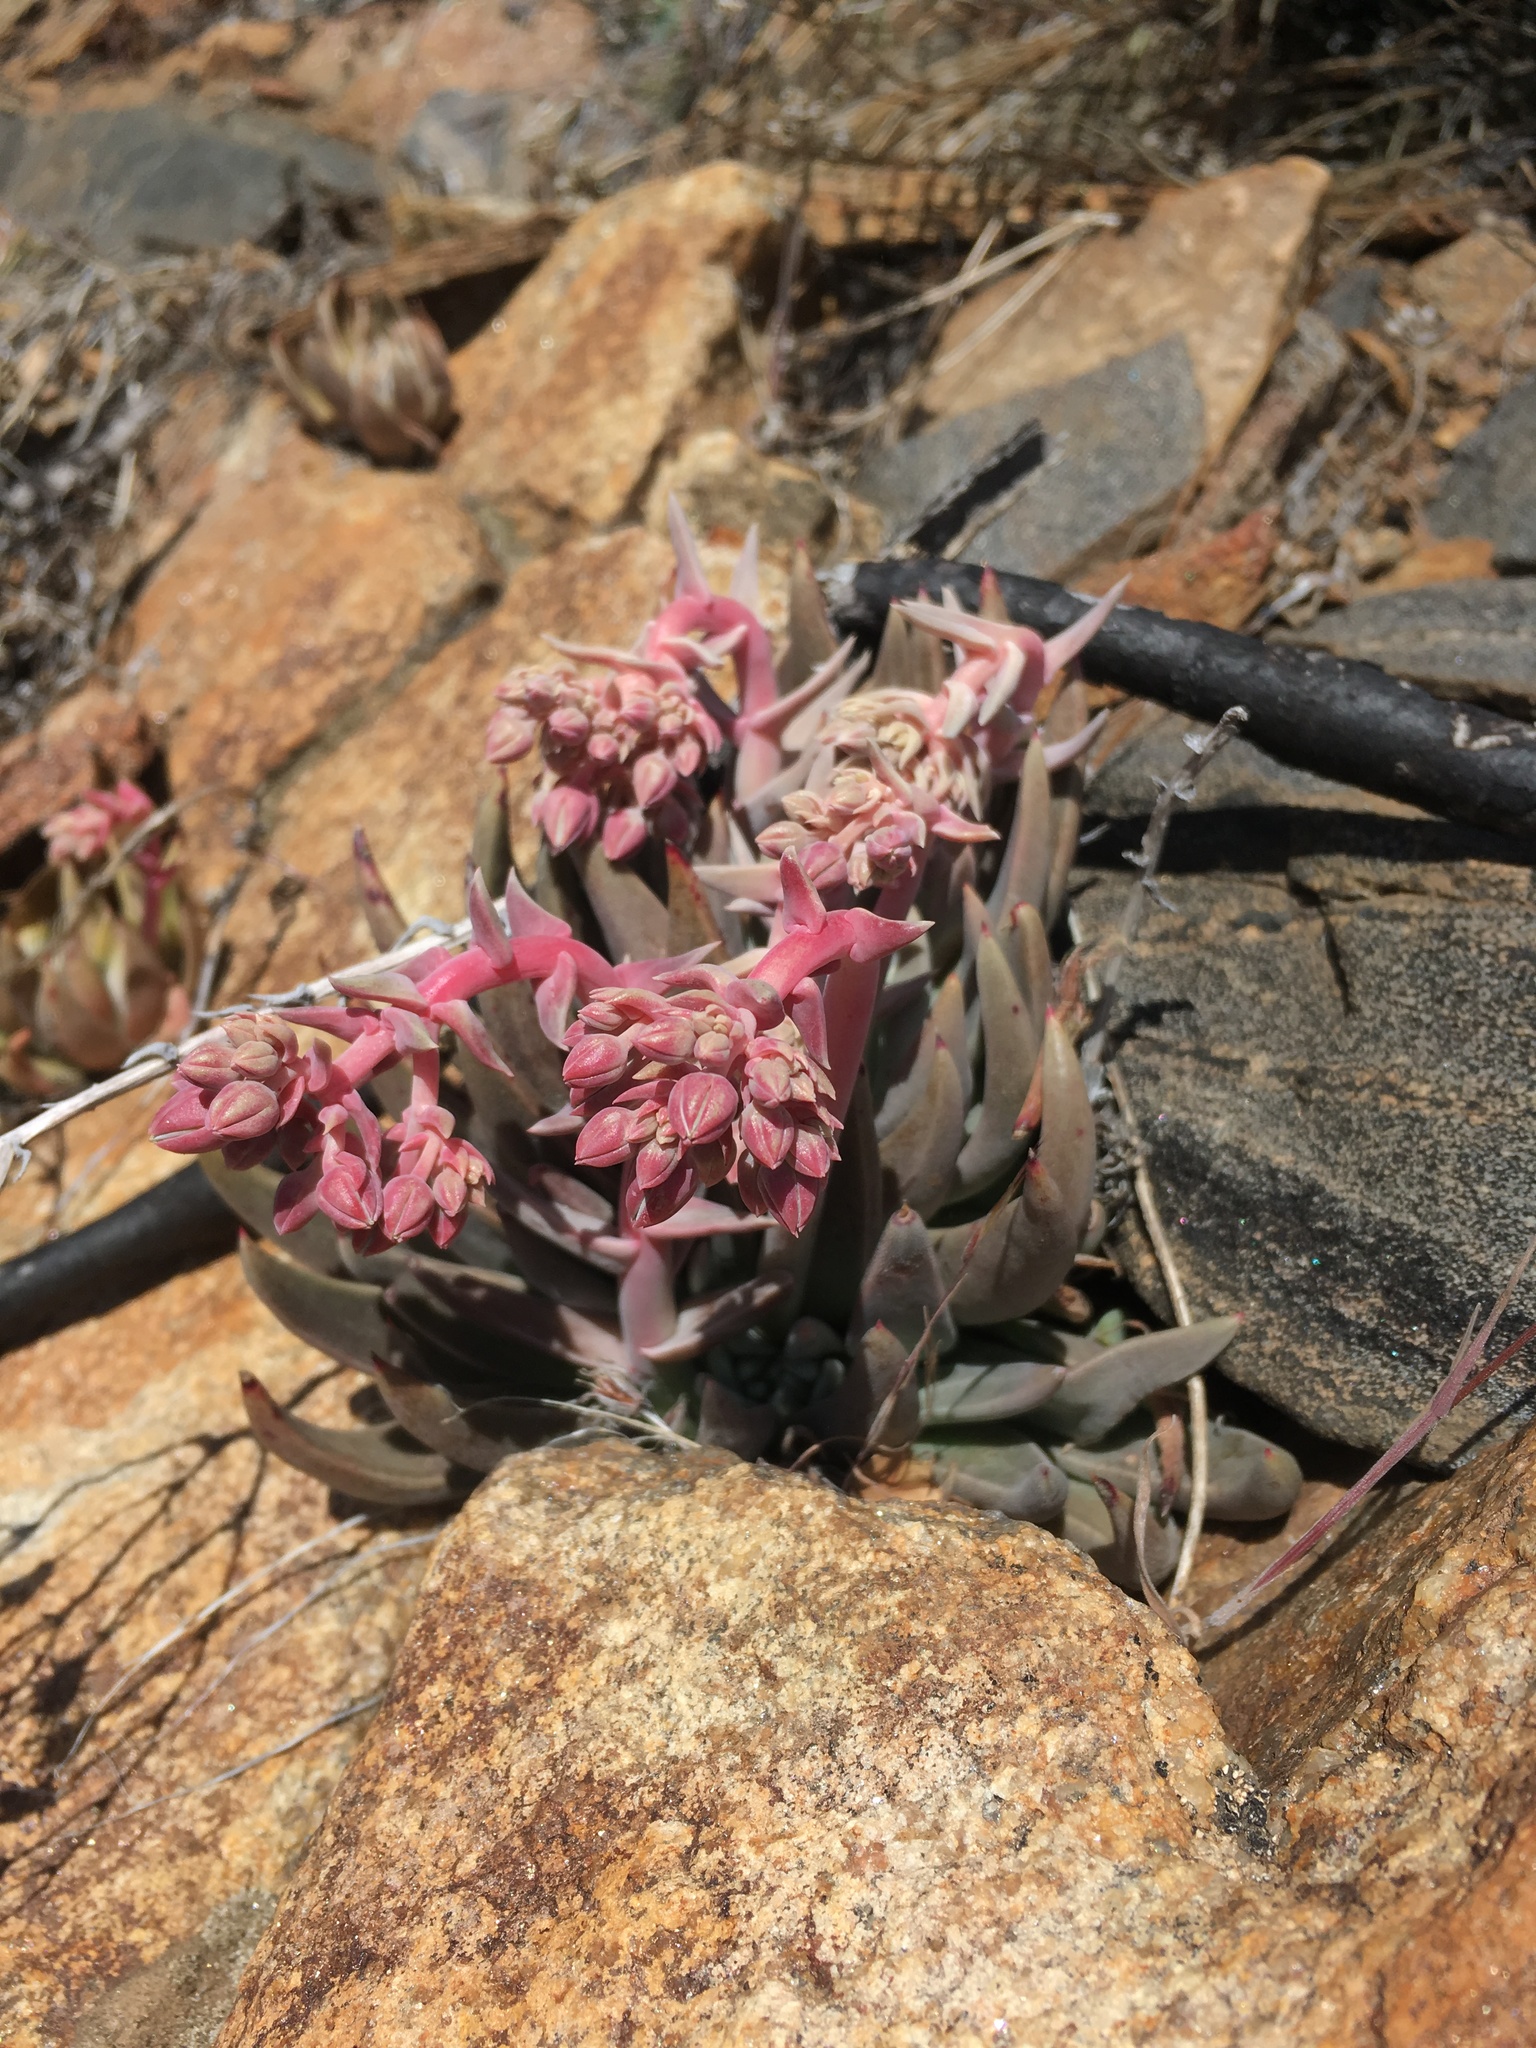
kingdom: Plantae
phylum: Tracheophyta
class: Magnoliopsida
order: Saxifragales
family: Crassulaceae
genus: Dudleya
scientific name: Dudleya saxosa
